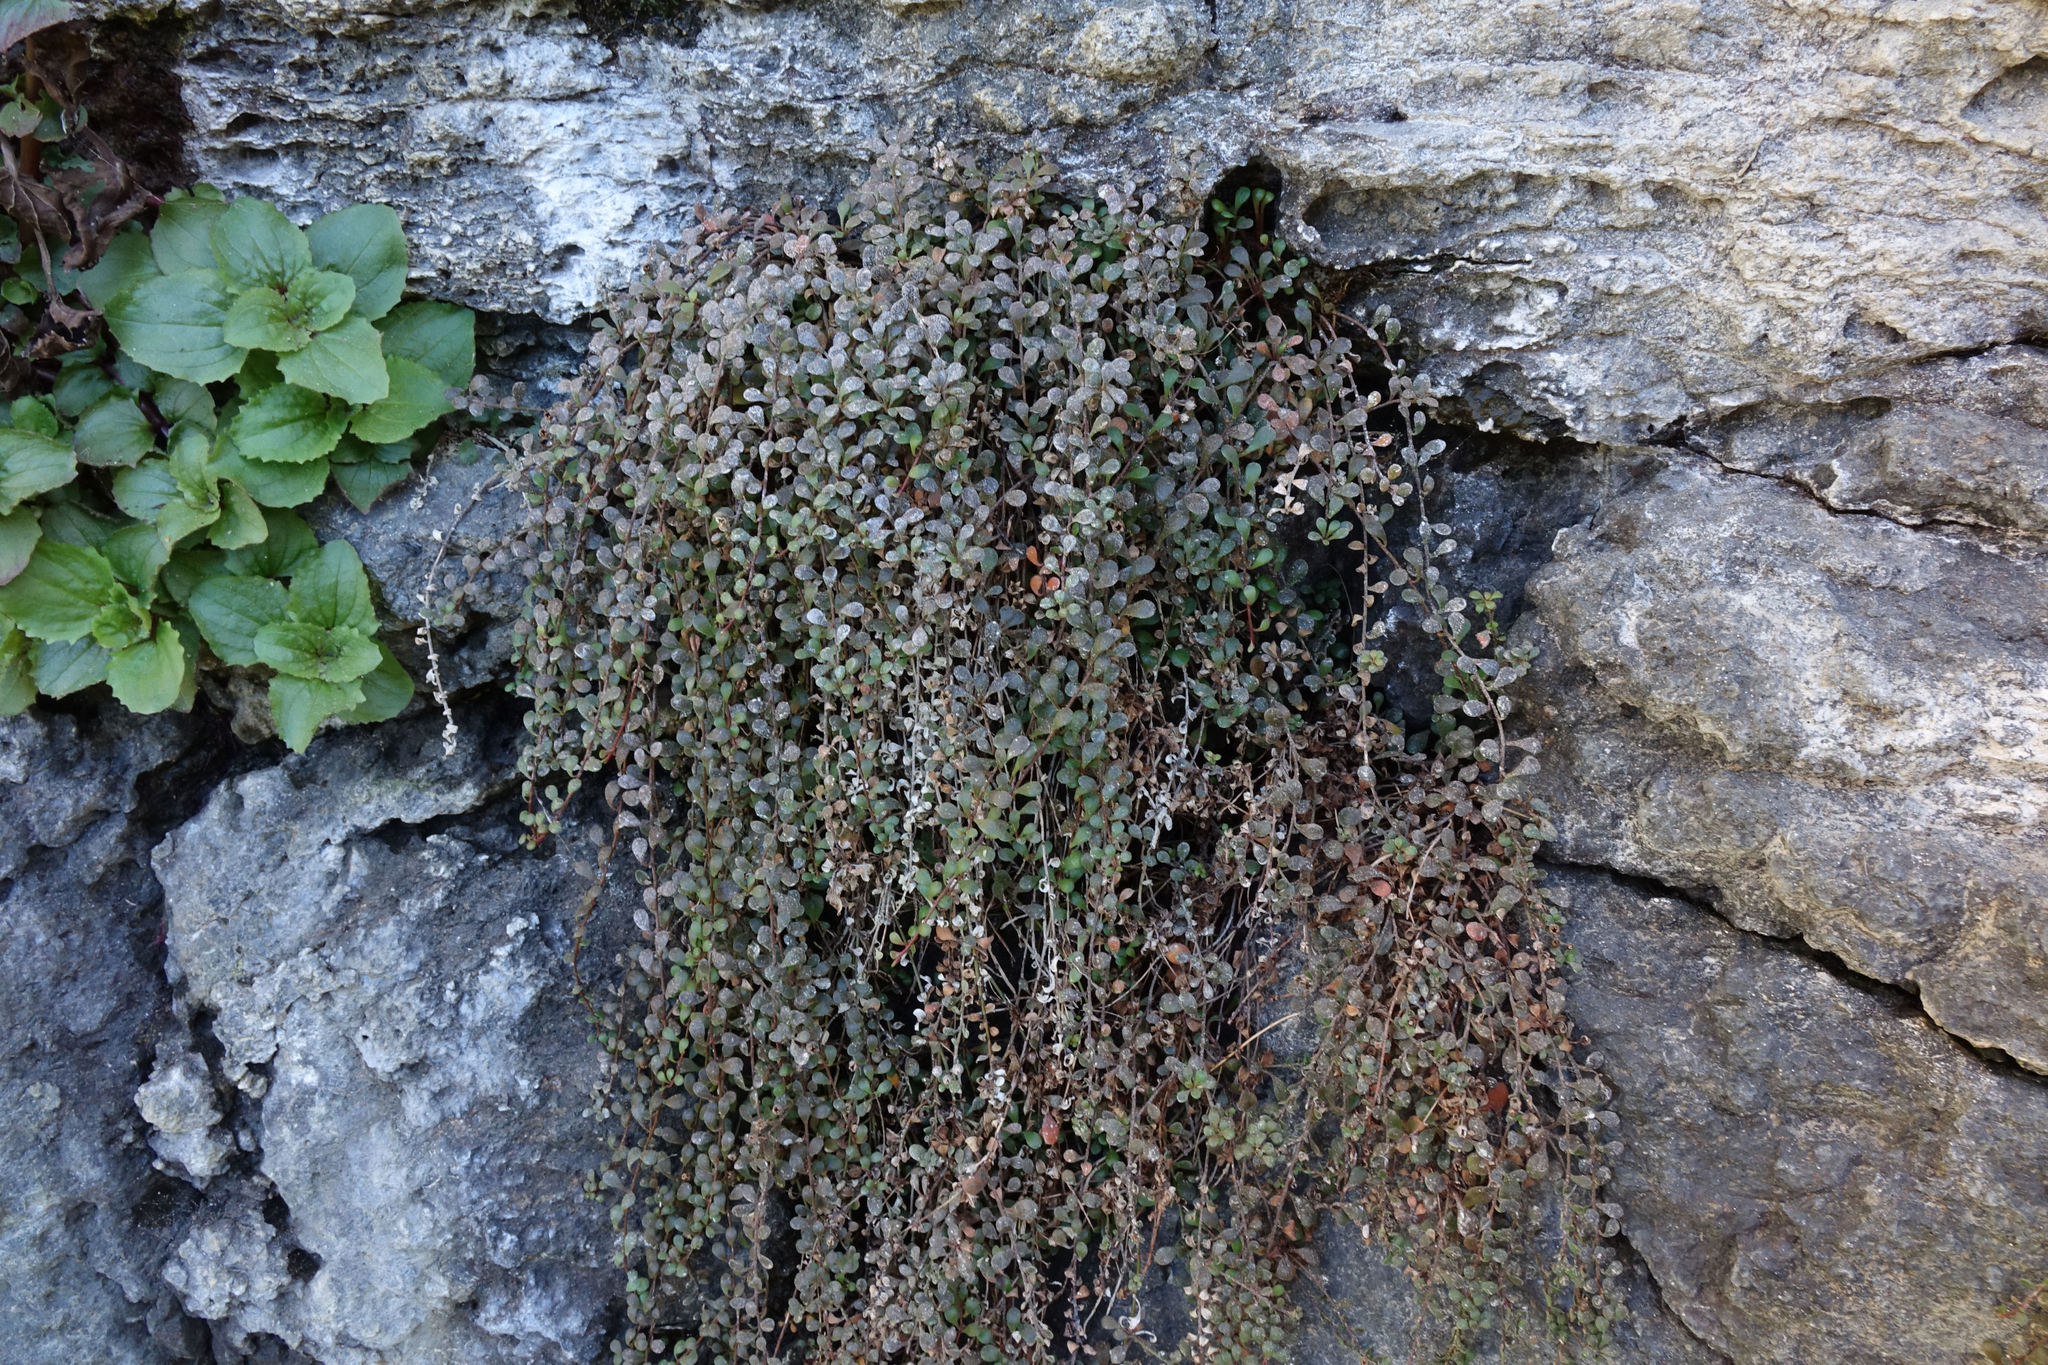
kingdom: Plantae
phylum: Tracheophyta
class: Magnoliopsida
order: Ericales
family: Primulaceae
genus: Samolus
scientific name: Samolus repens
